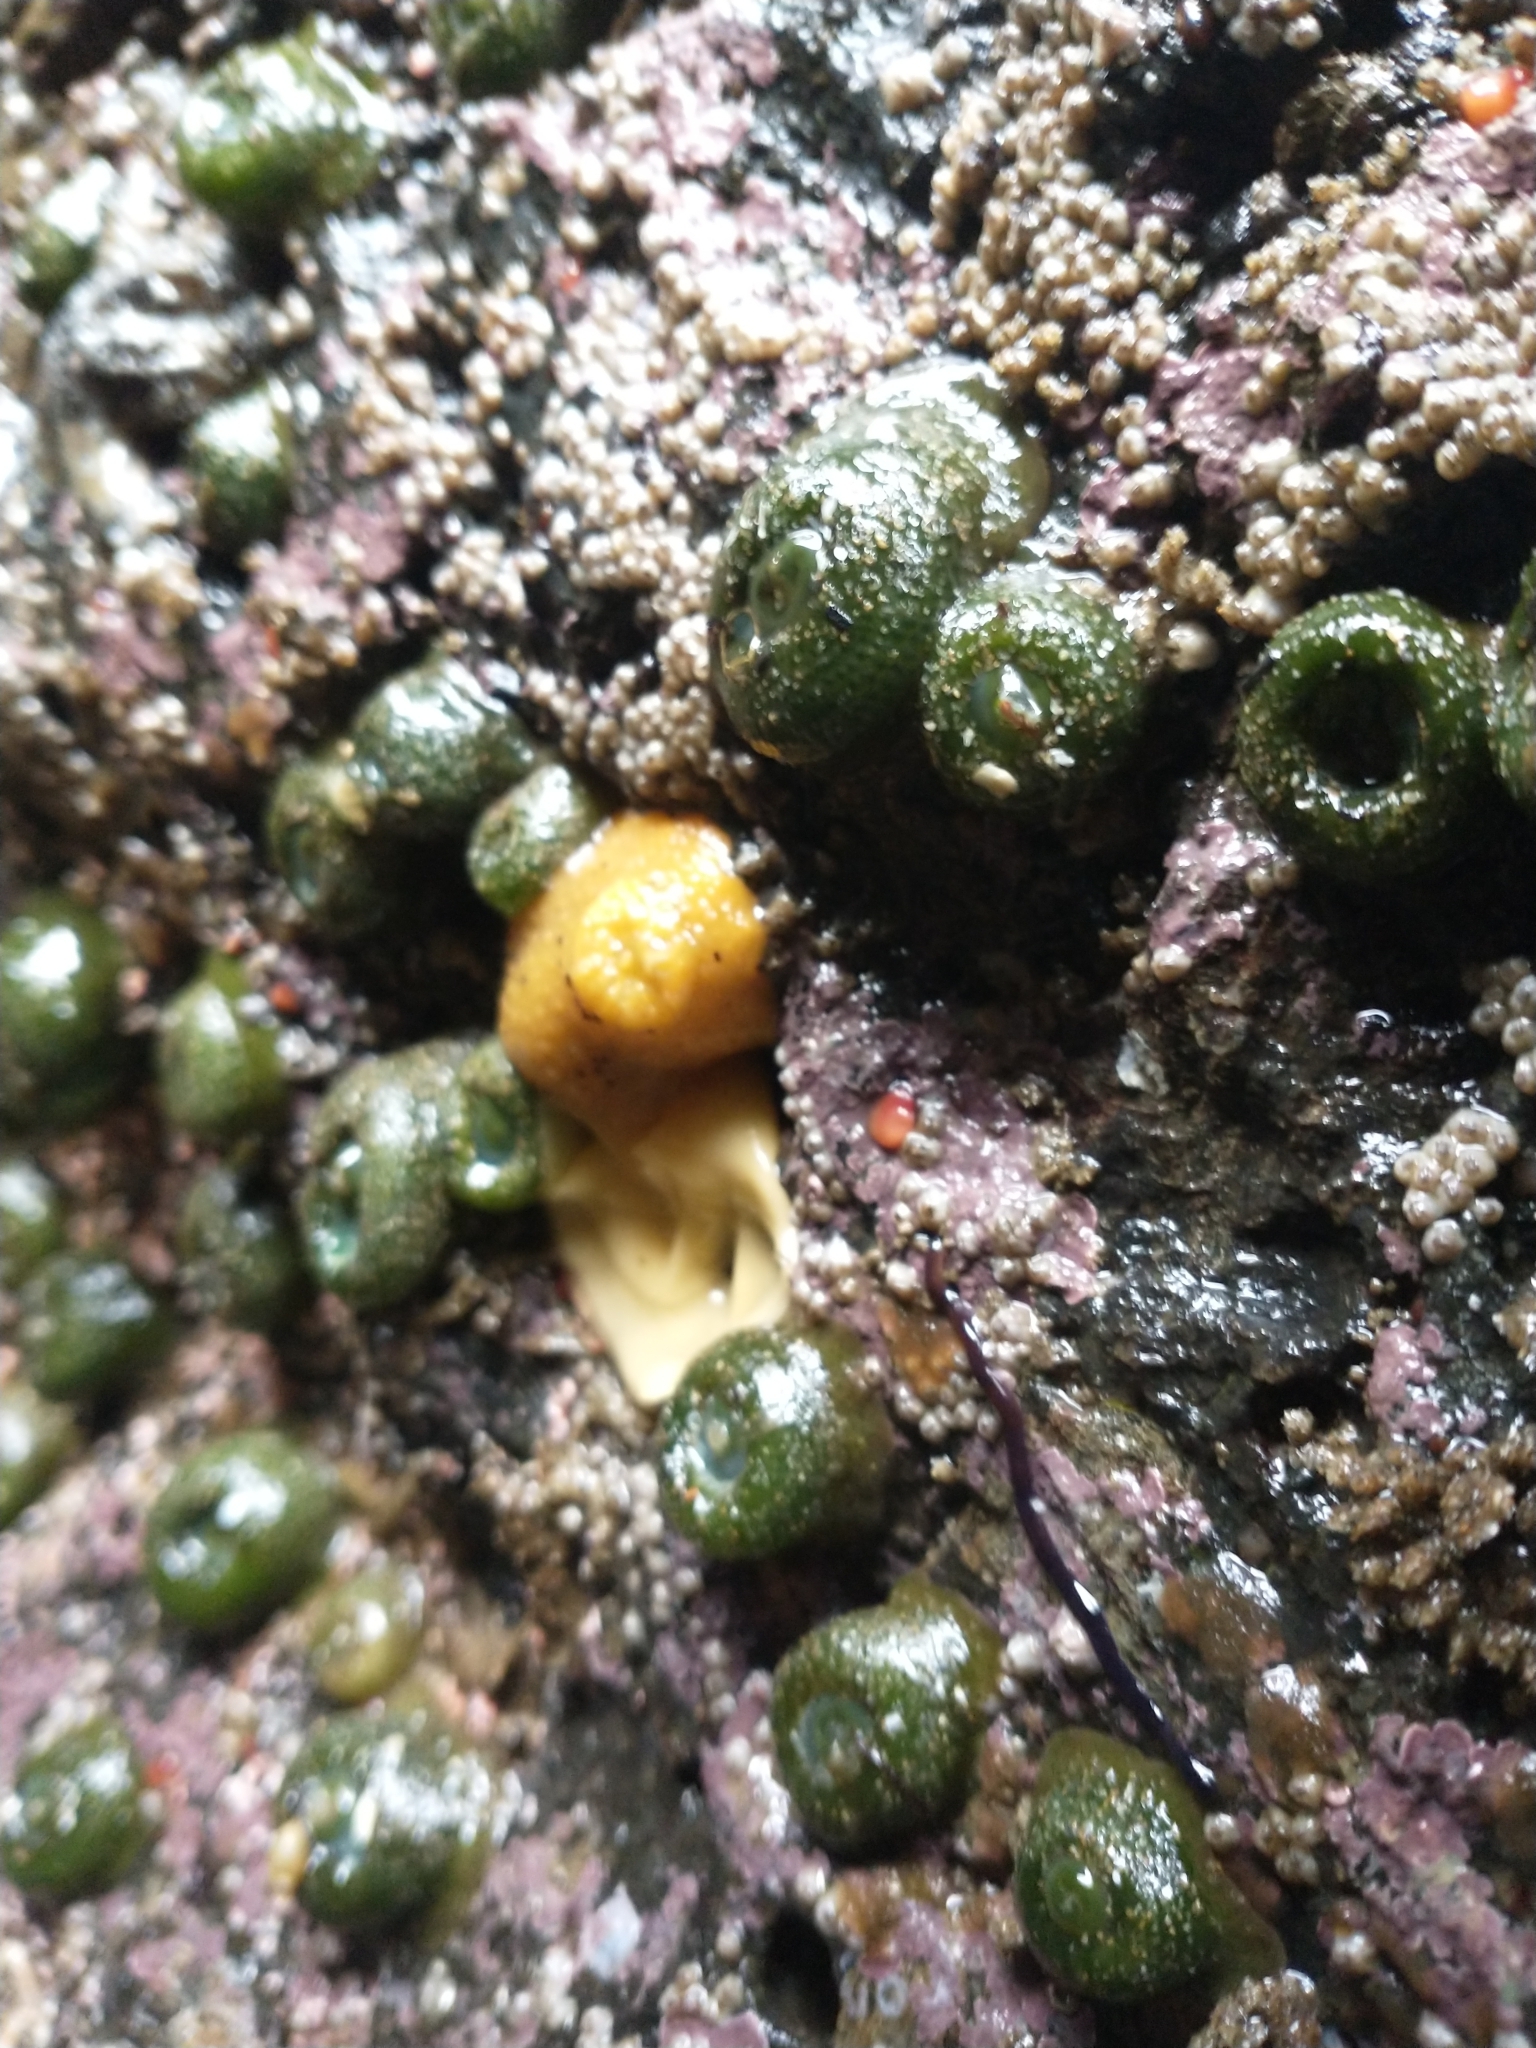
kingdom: Animalia
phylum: Mollusca
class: Gastropoda
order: Nudibranchia
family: Dorididae
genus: Doris
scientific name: Doris montereyensis
